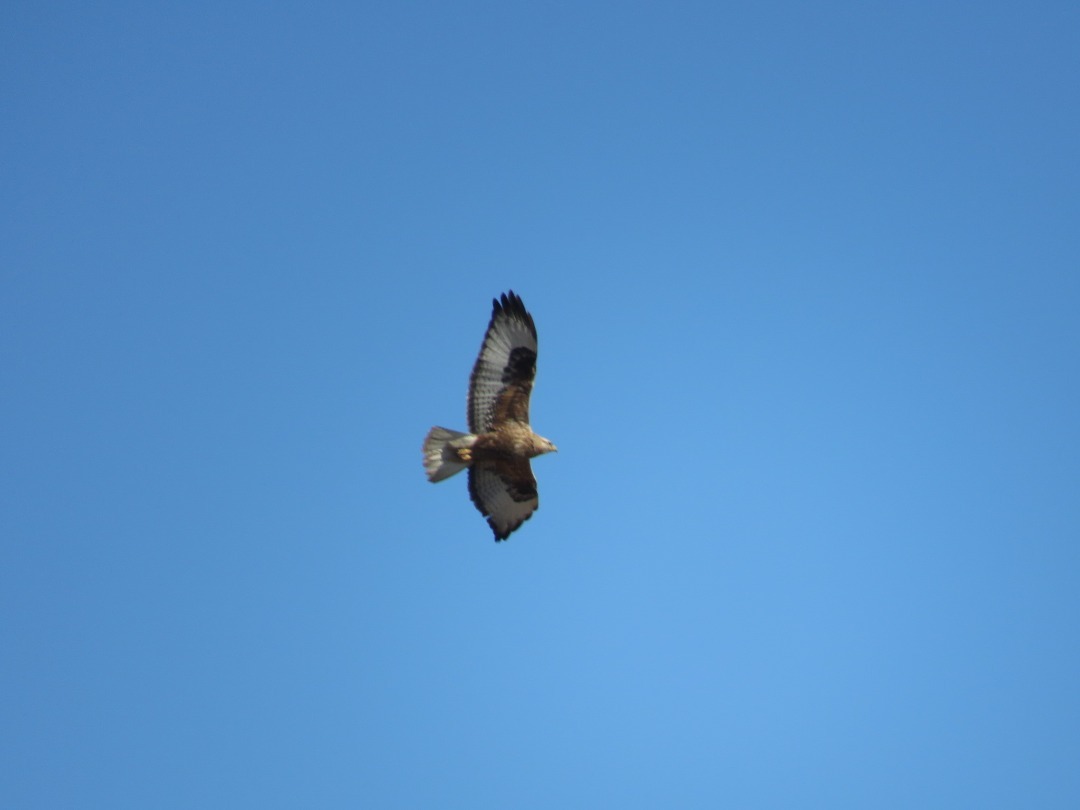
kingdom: Animalia
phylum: Chordata
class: Aves
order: Accipitriformes
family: Accipitridae
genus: Buteo
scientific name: Buteo rufinus
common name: Long-legged buzzard
